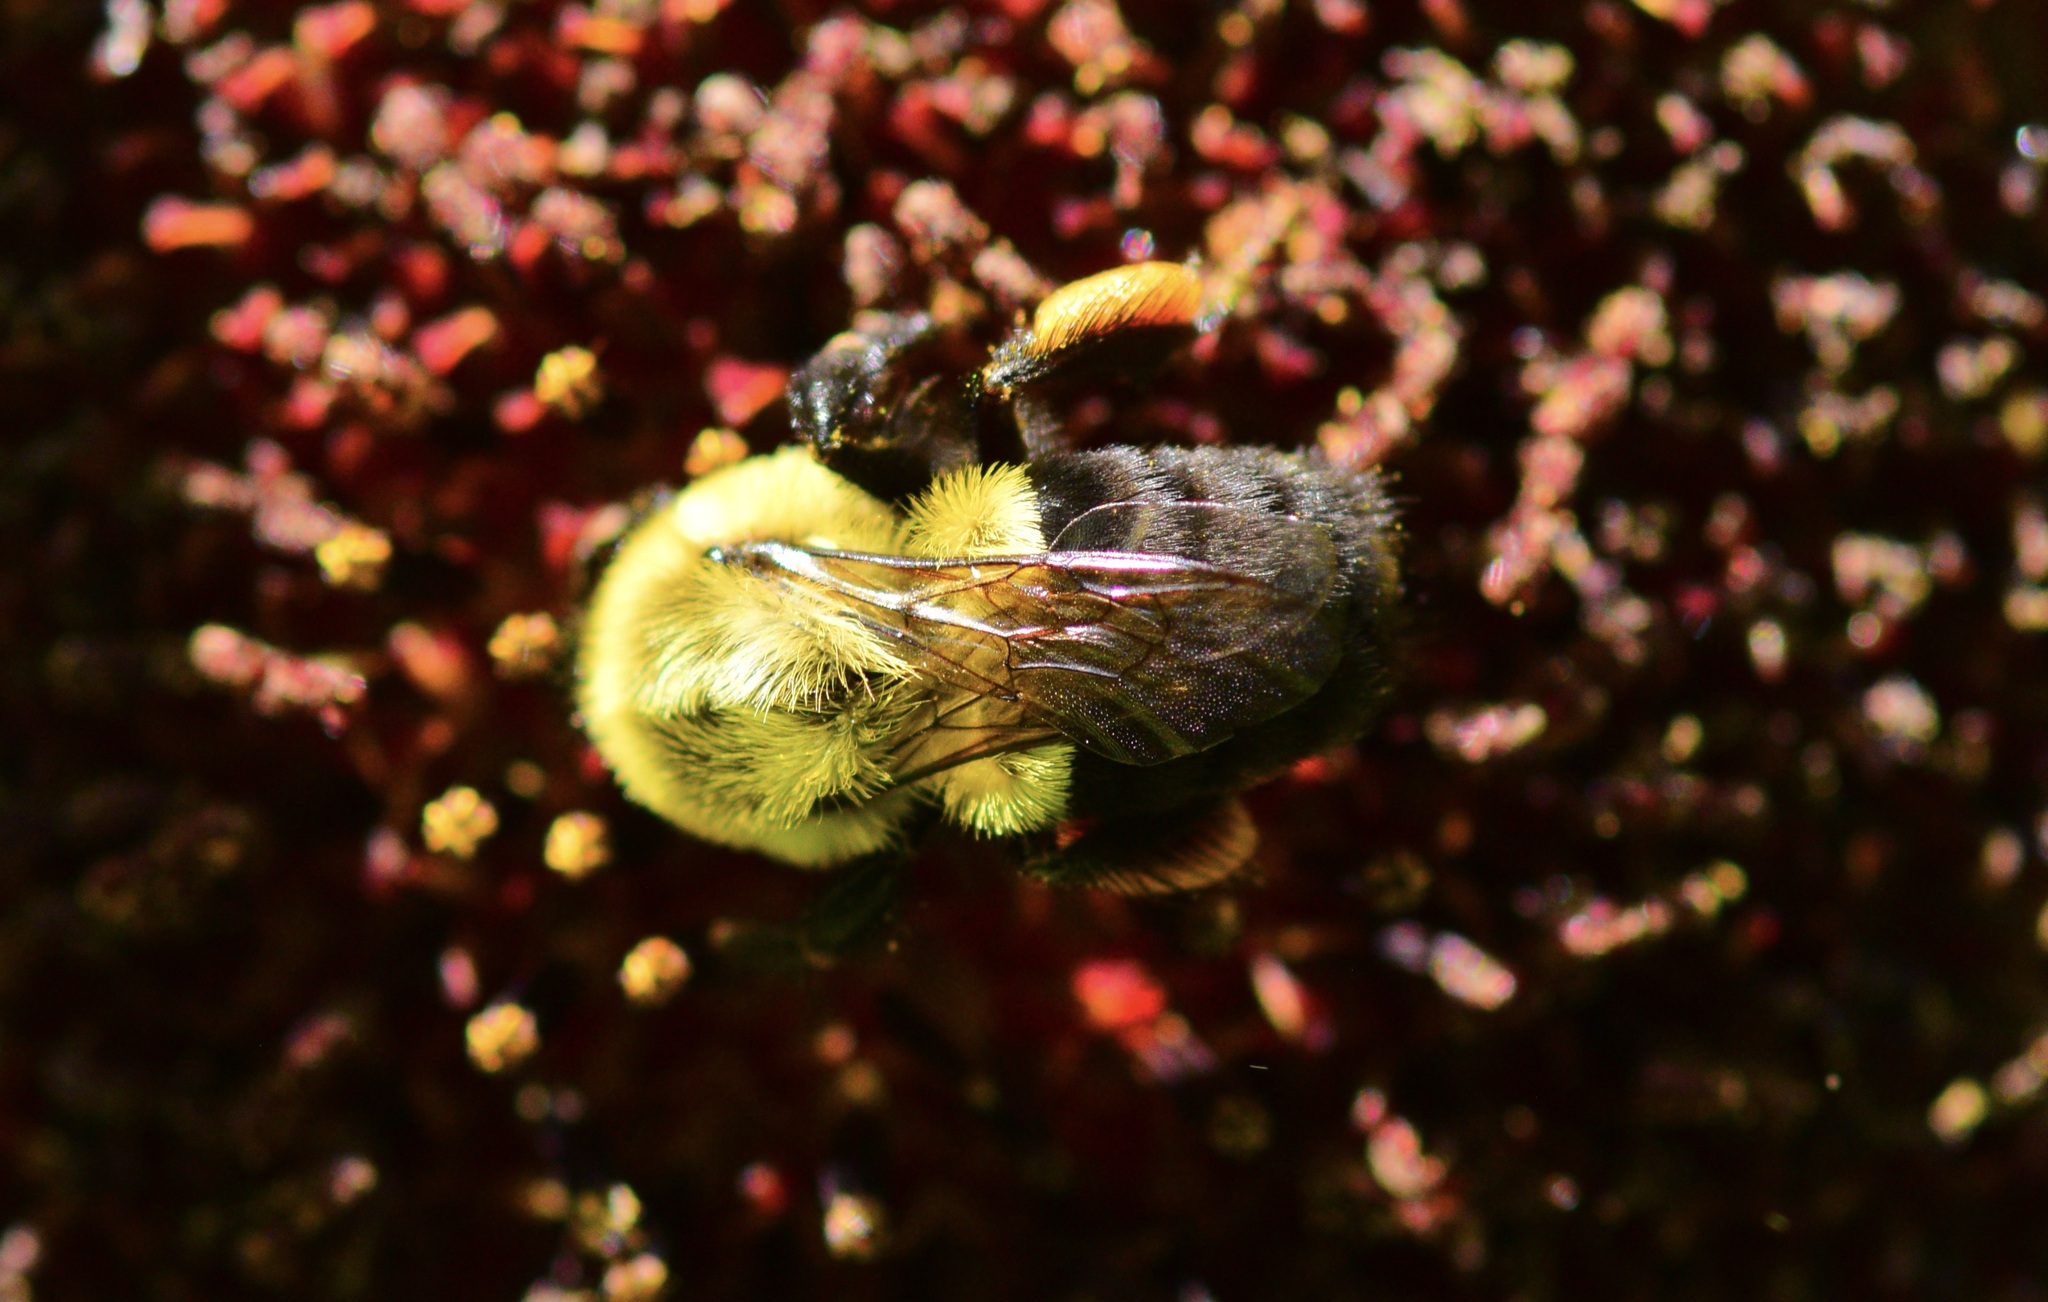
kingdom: Animalia
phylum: Arthropoda
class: Insecta
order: Hymenoptera
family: Apidae
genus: Bombus
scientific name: Bombus impatiens
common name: Common eastern bumble bee
